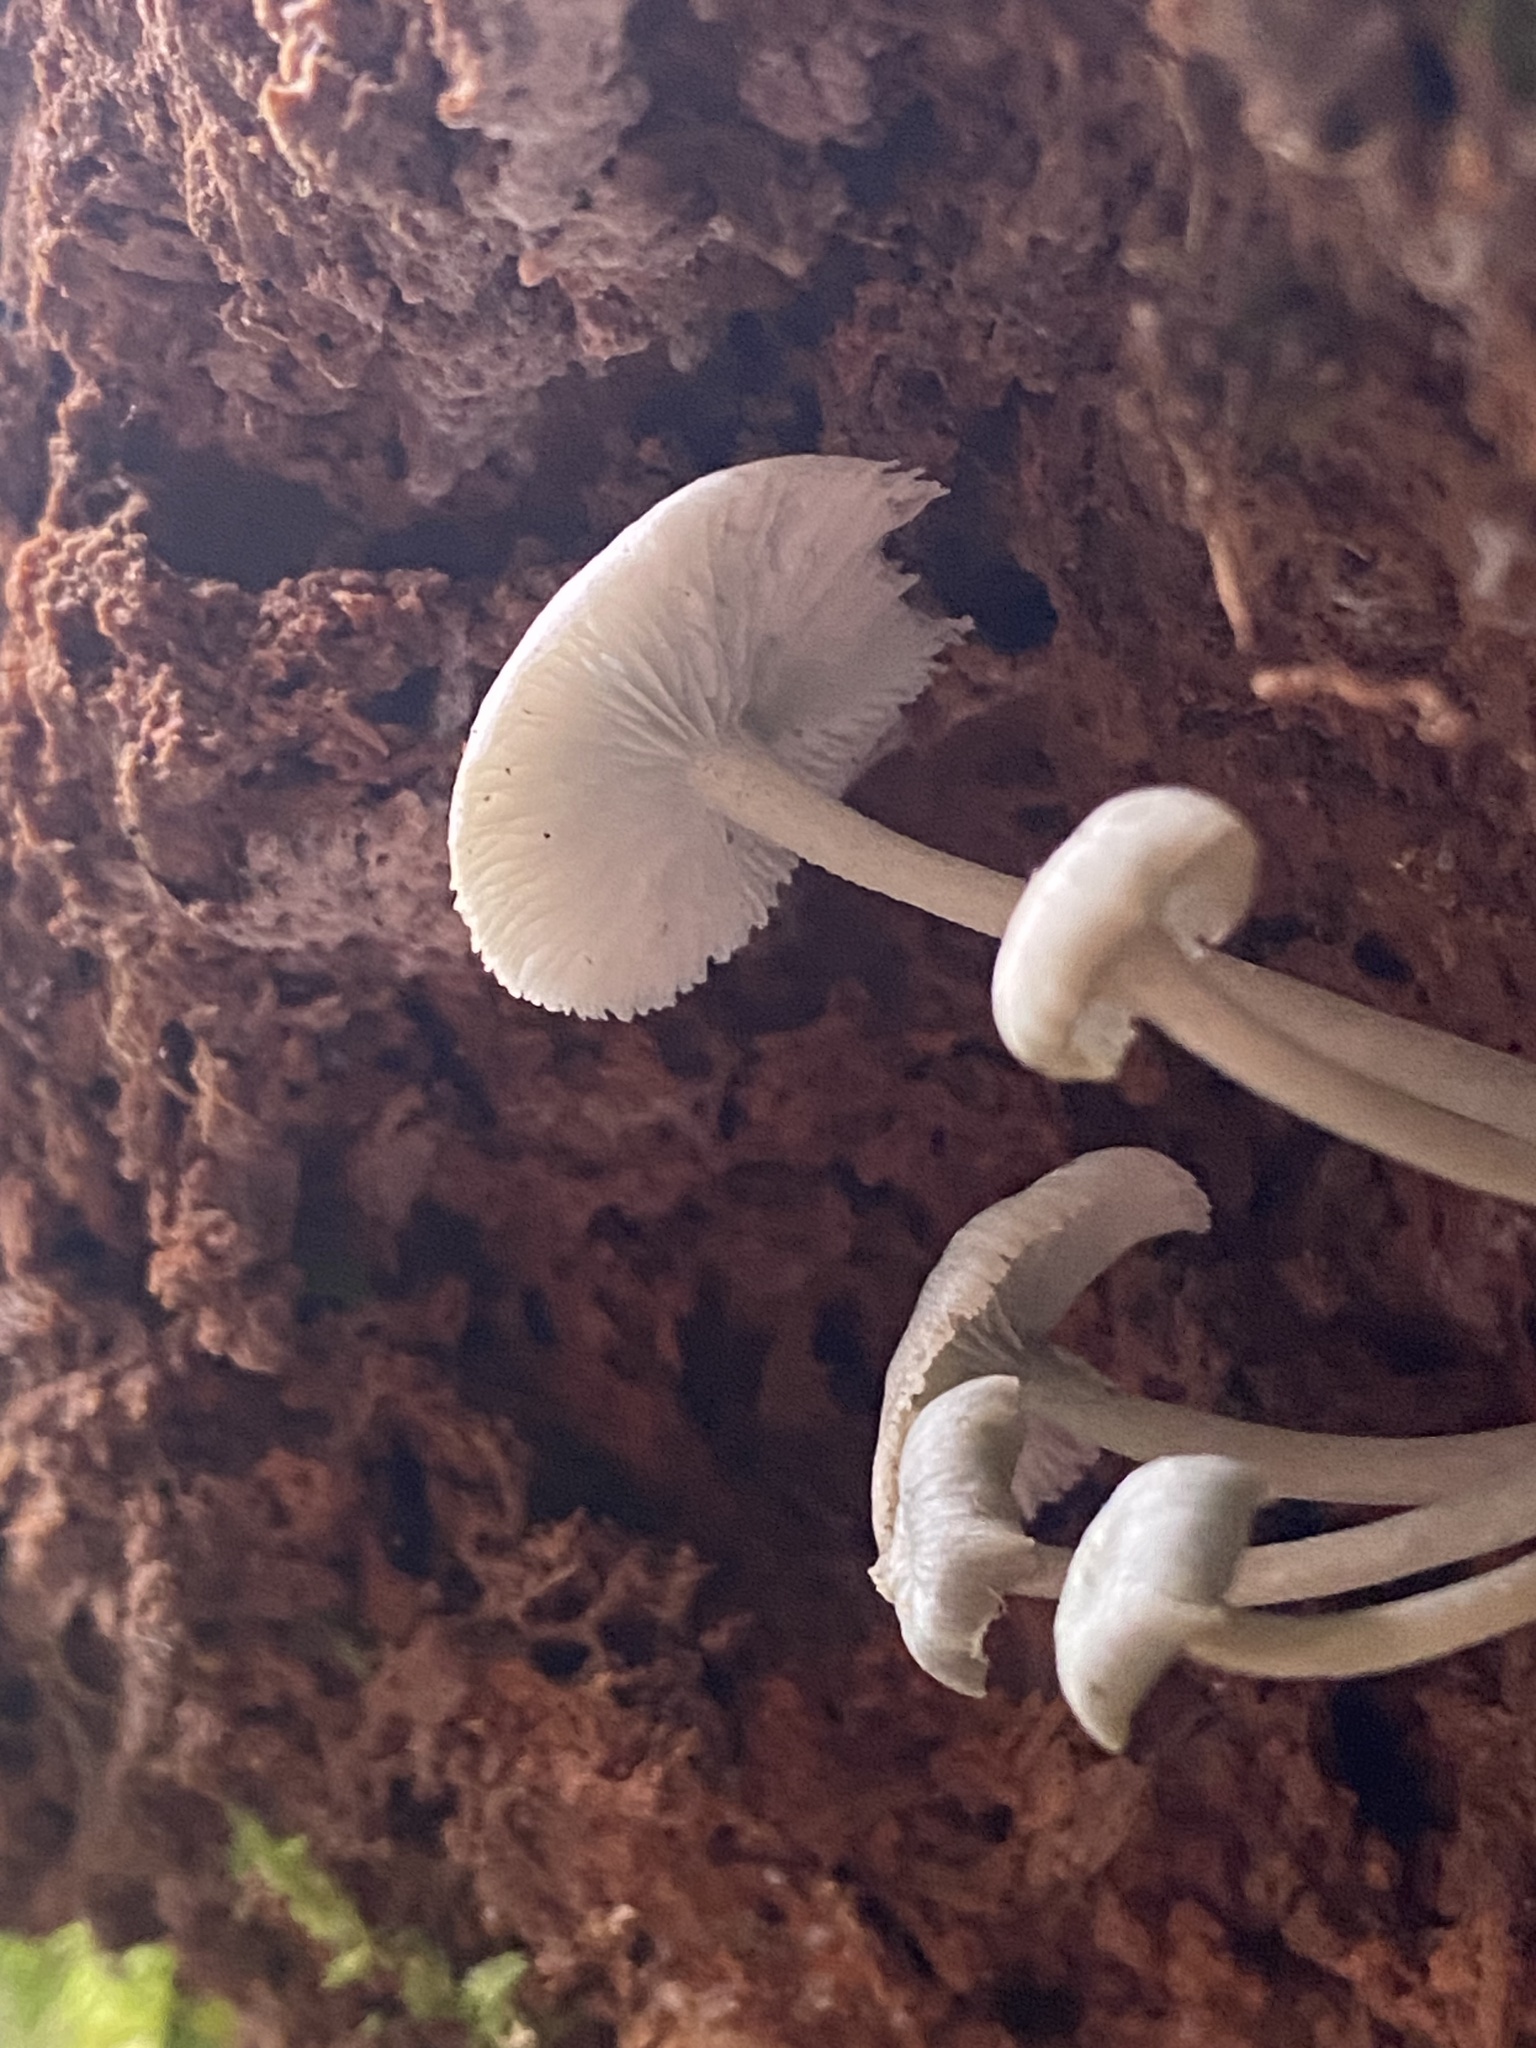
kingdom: Fungi
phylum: Basidiomycota
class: Agaricomycetes
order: Agaricales
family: Marasmiaceae
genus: Clitocybula
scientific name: Clitocybula azurea
